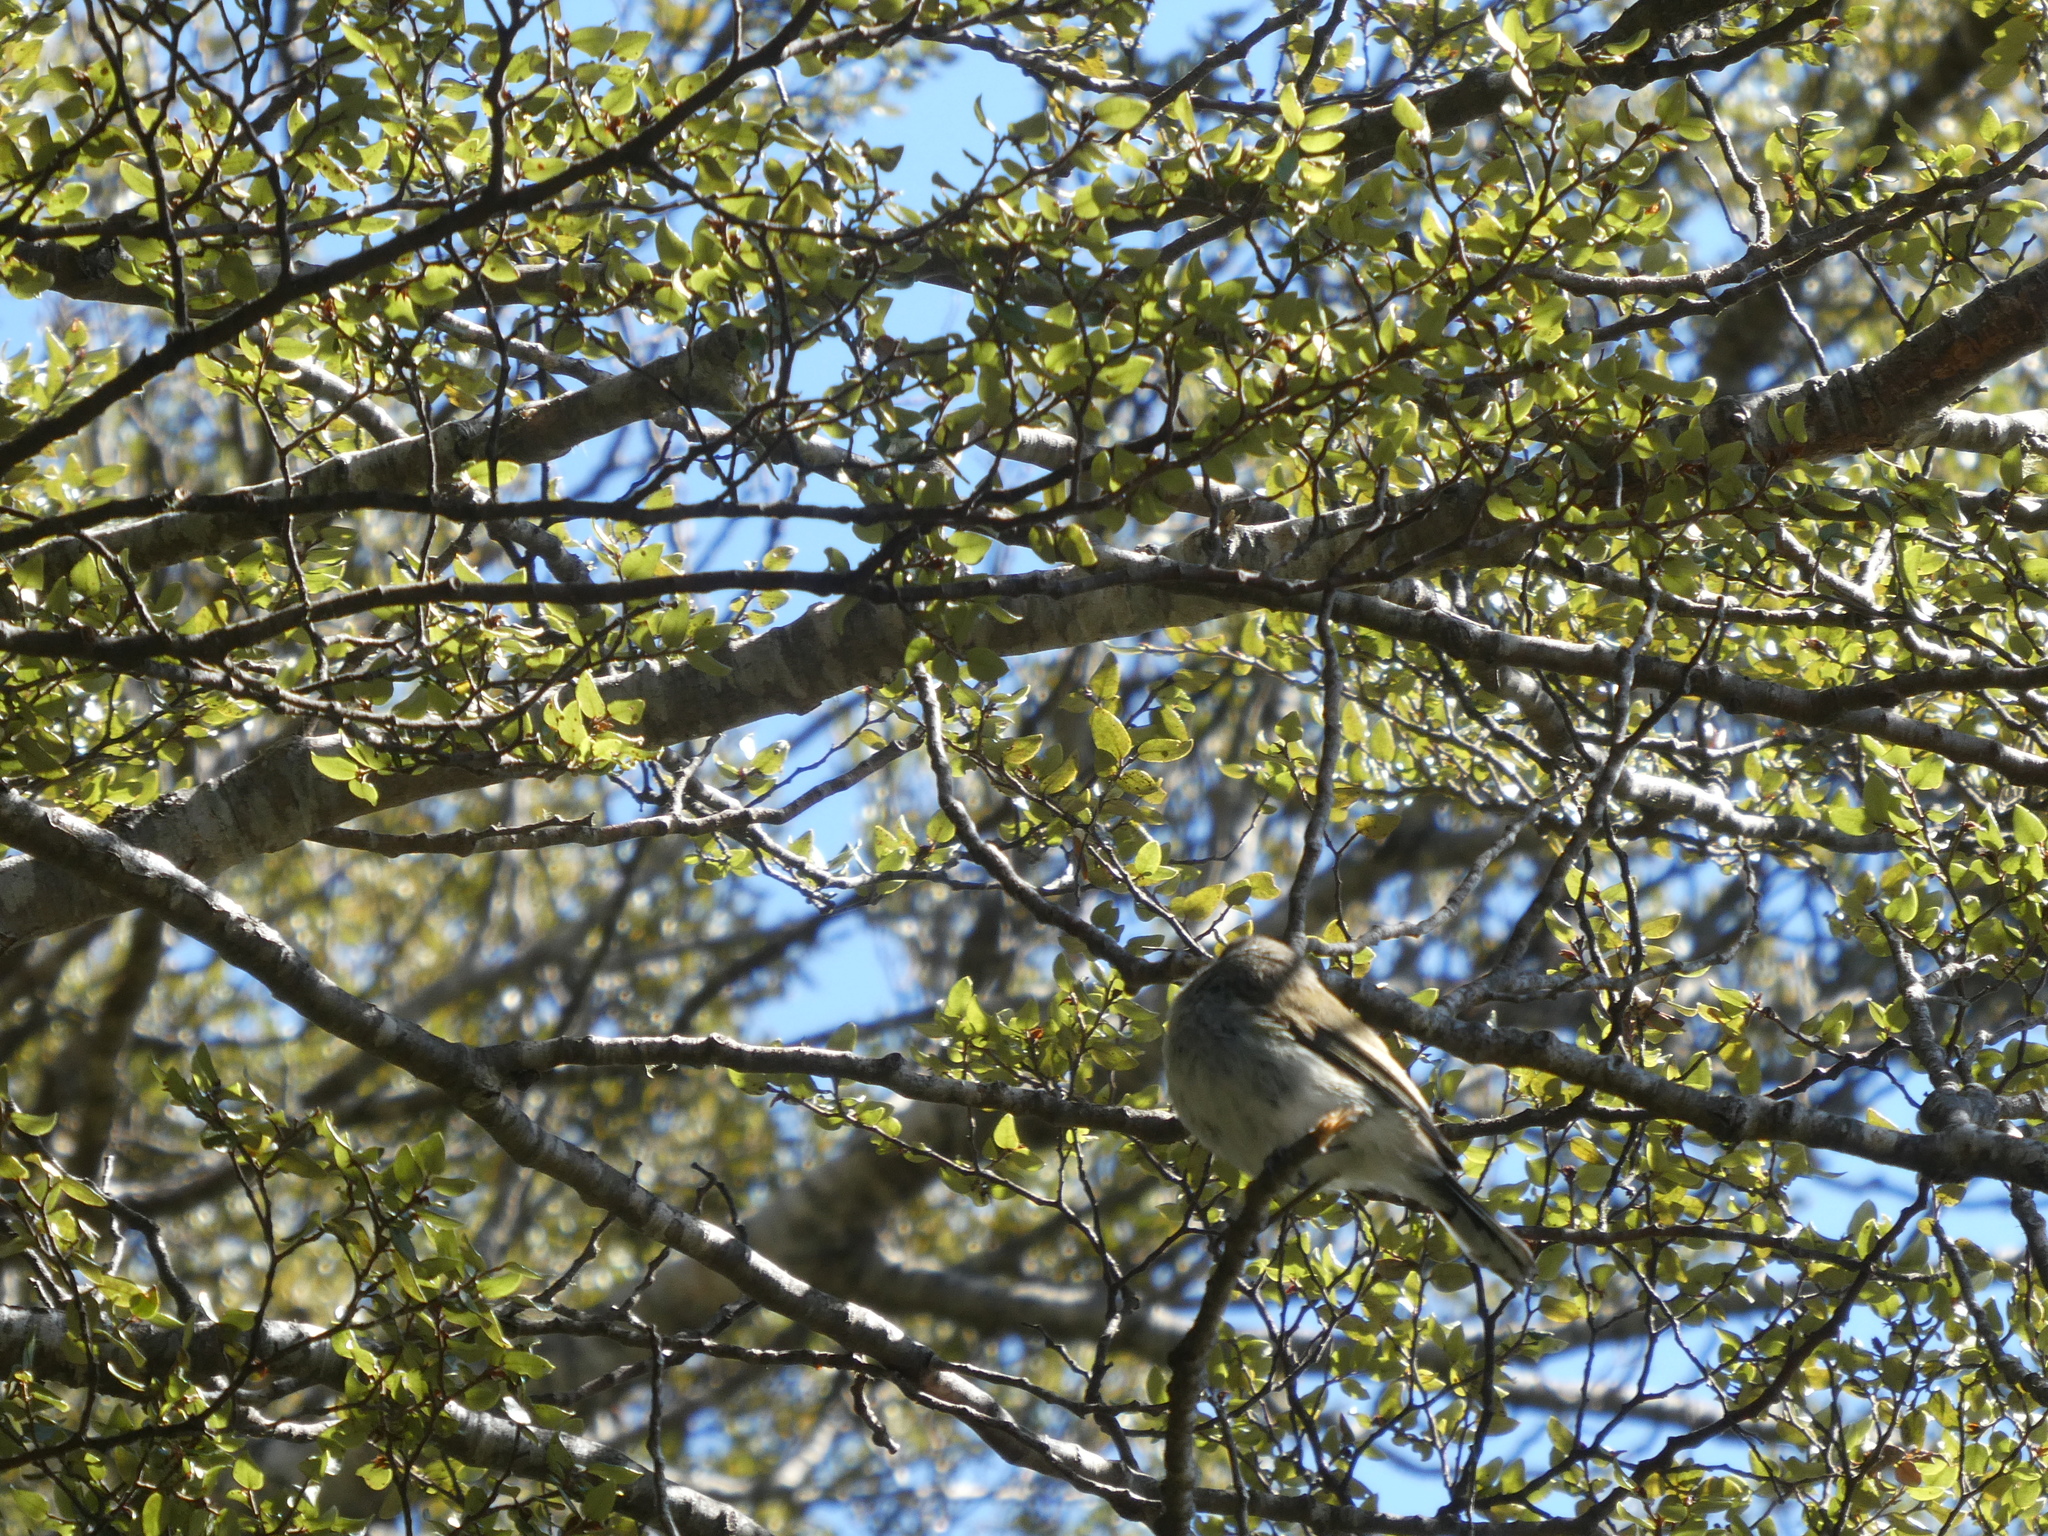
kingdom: Animalia
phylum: Chordata
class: Aves
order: Passeriformes
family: Acanthizidae
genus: Gerygone
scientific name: Gerygone igata
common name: Grey gerygone
